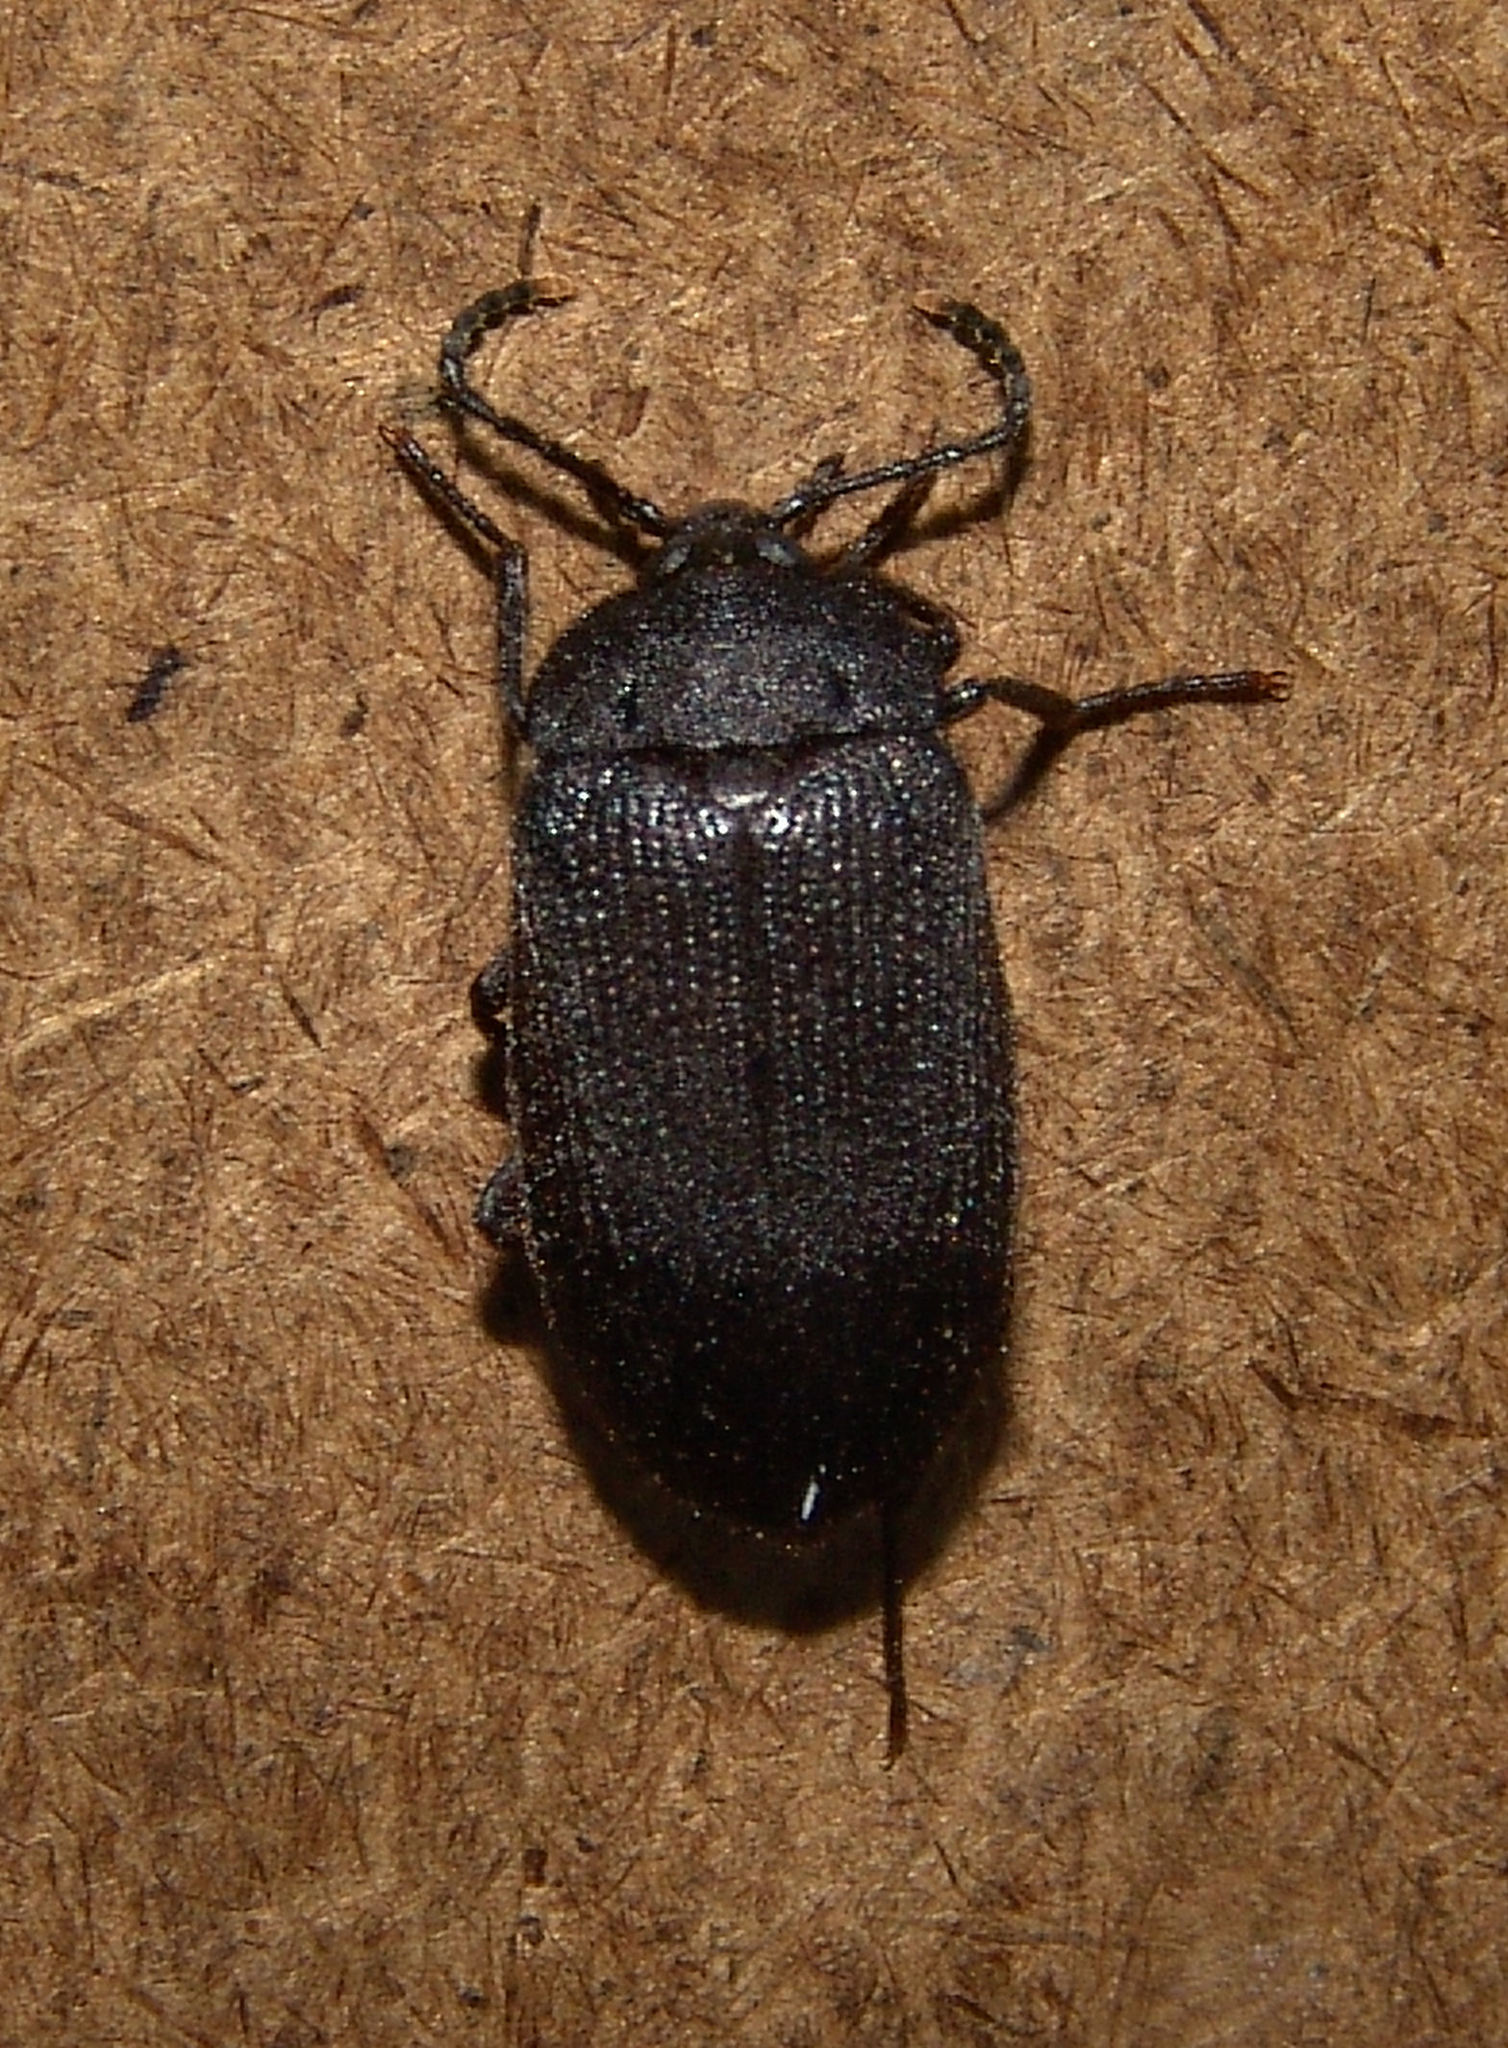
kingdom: Animalia
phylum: Arthropoda
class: Insecta
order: Coleoptera
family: Tetratomidae
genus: Penthe
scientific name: Penthe pimelia
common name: Velvety bark beetle
